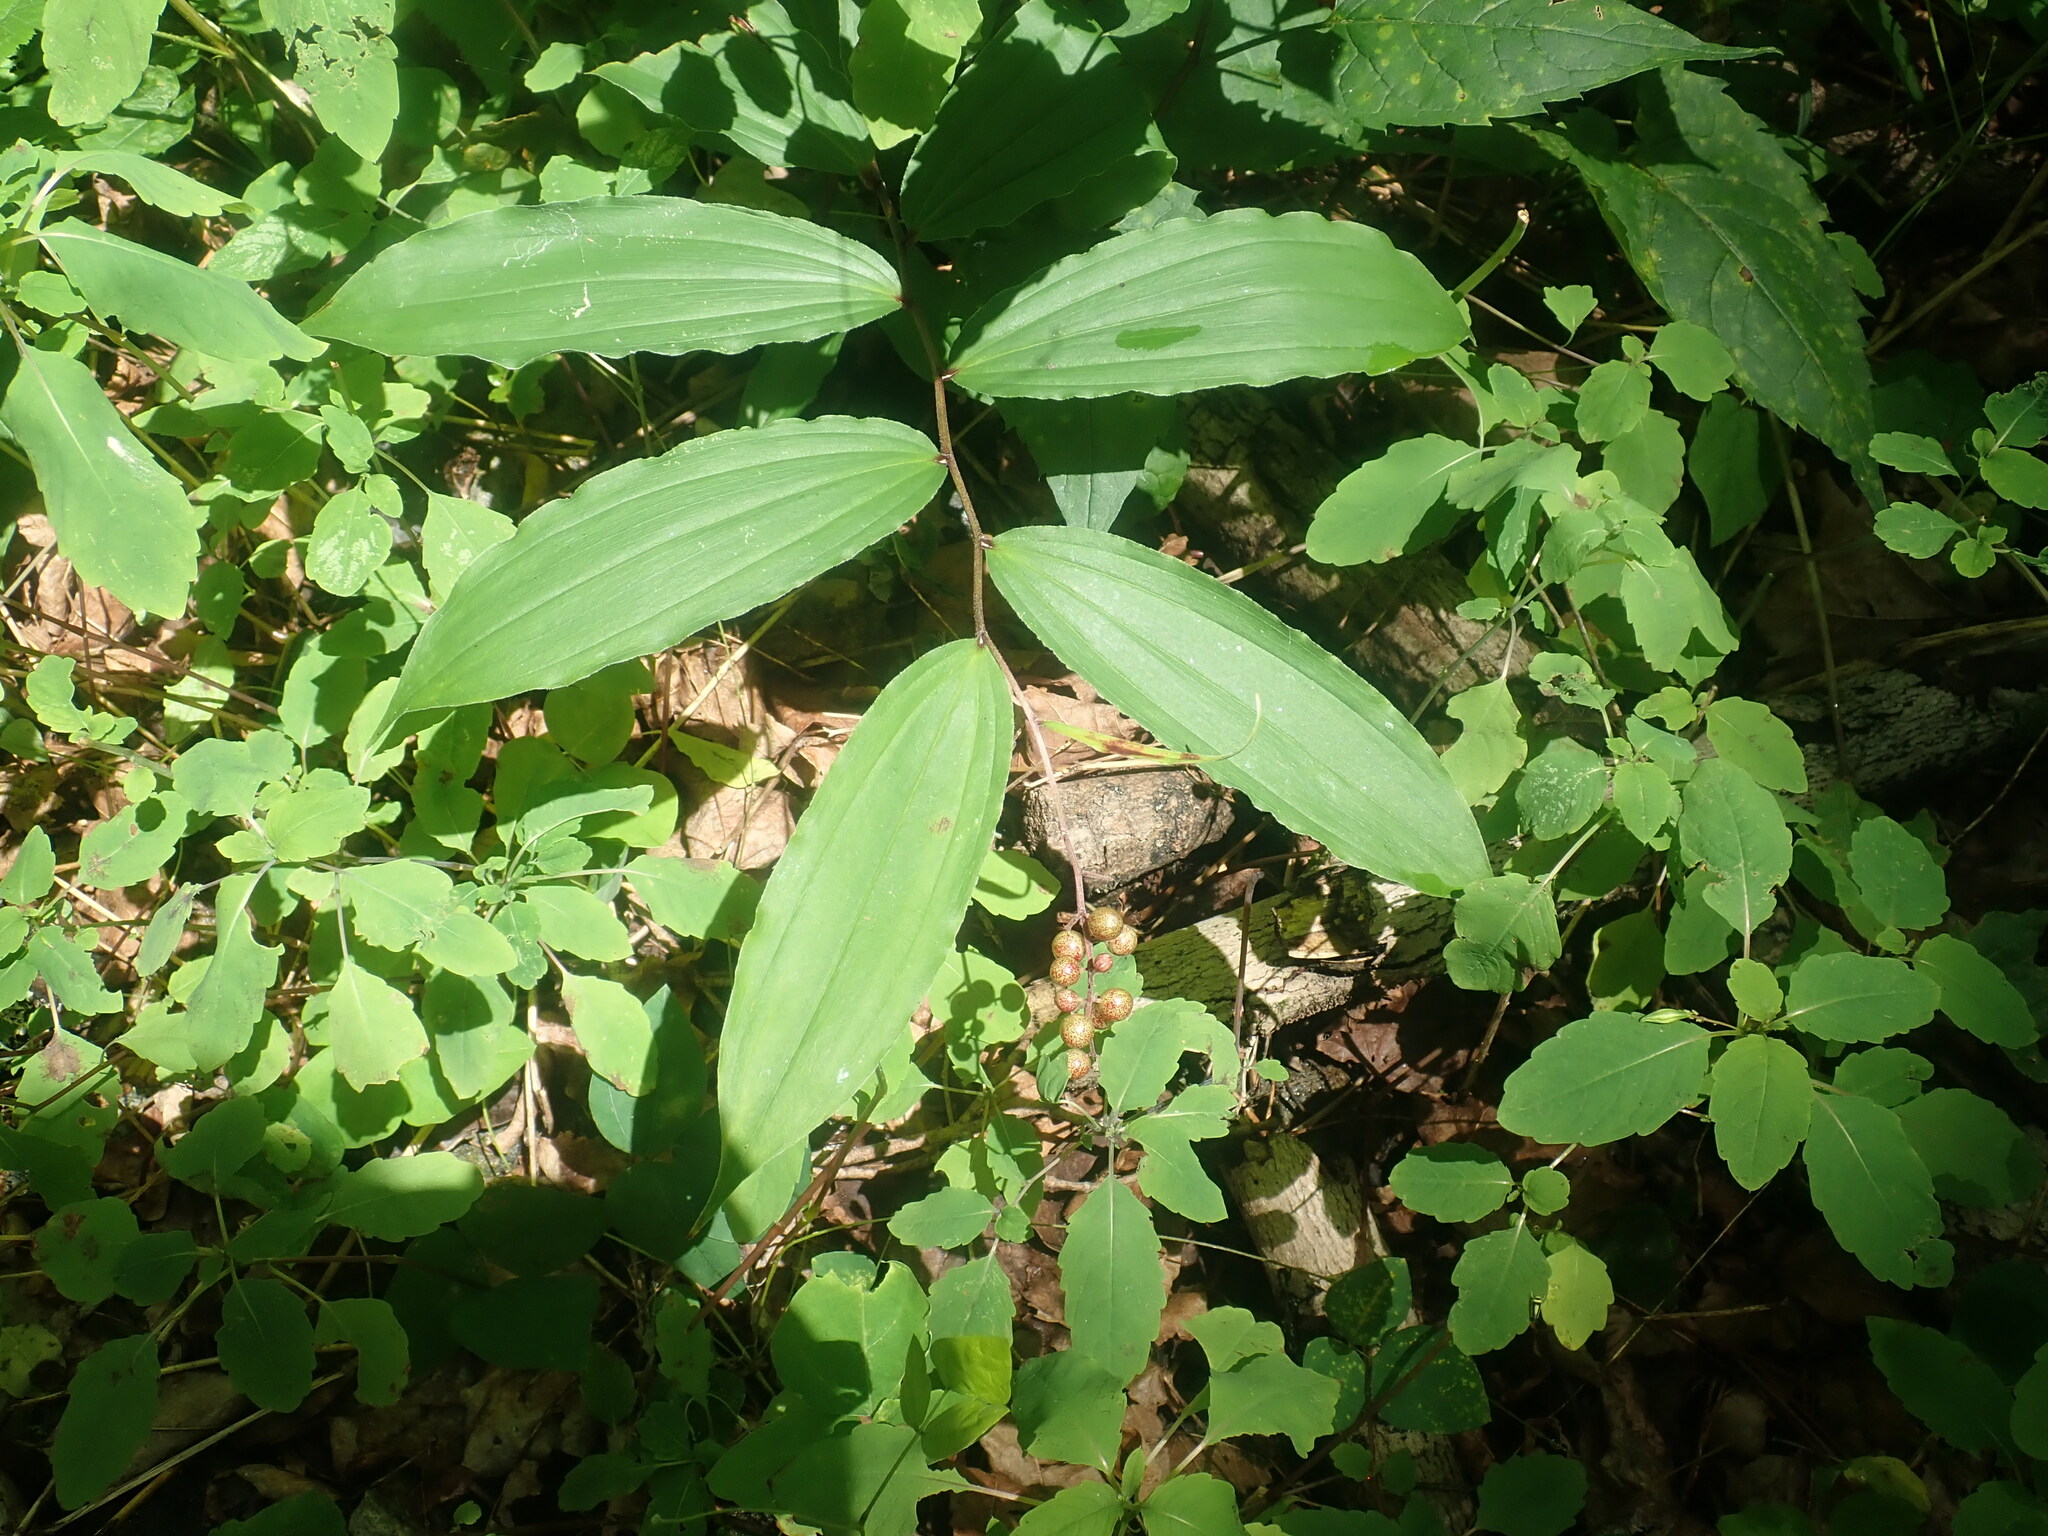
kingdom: Plantae
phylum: Tracheophyta
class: Liliopsida
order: Asparagales
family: Asparagaceae
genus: Maianthemum
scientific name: Maianthemum racemosum
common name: False spikenard
